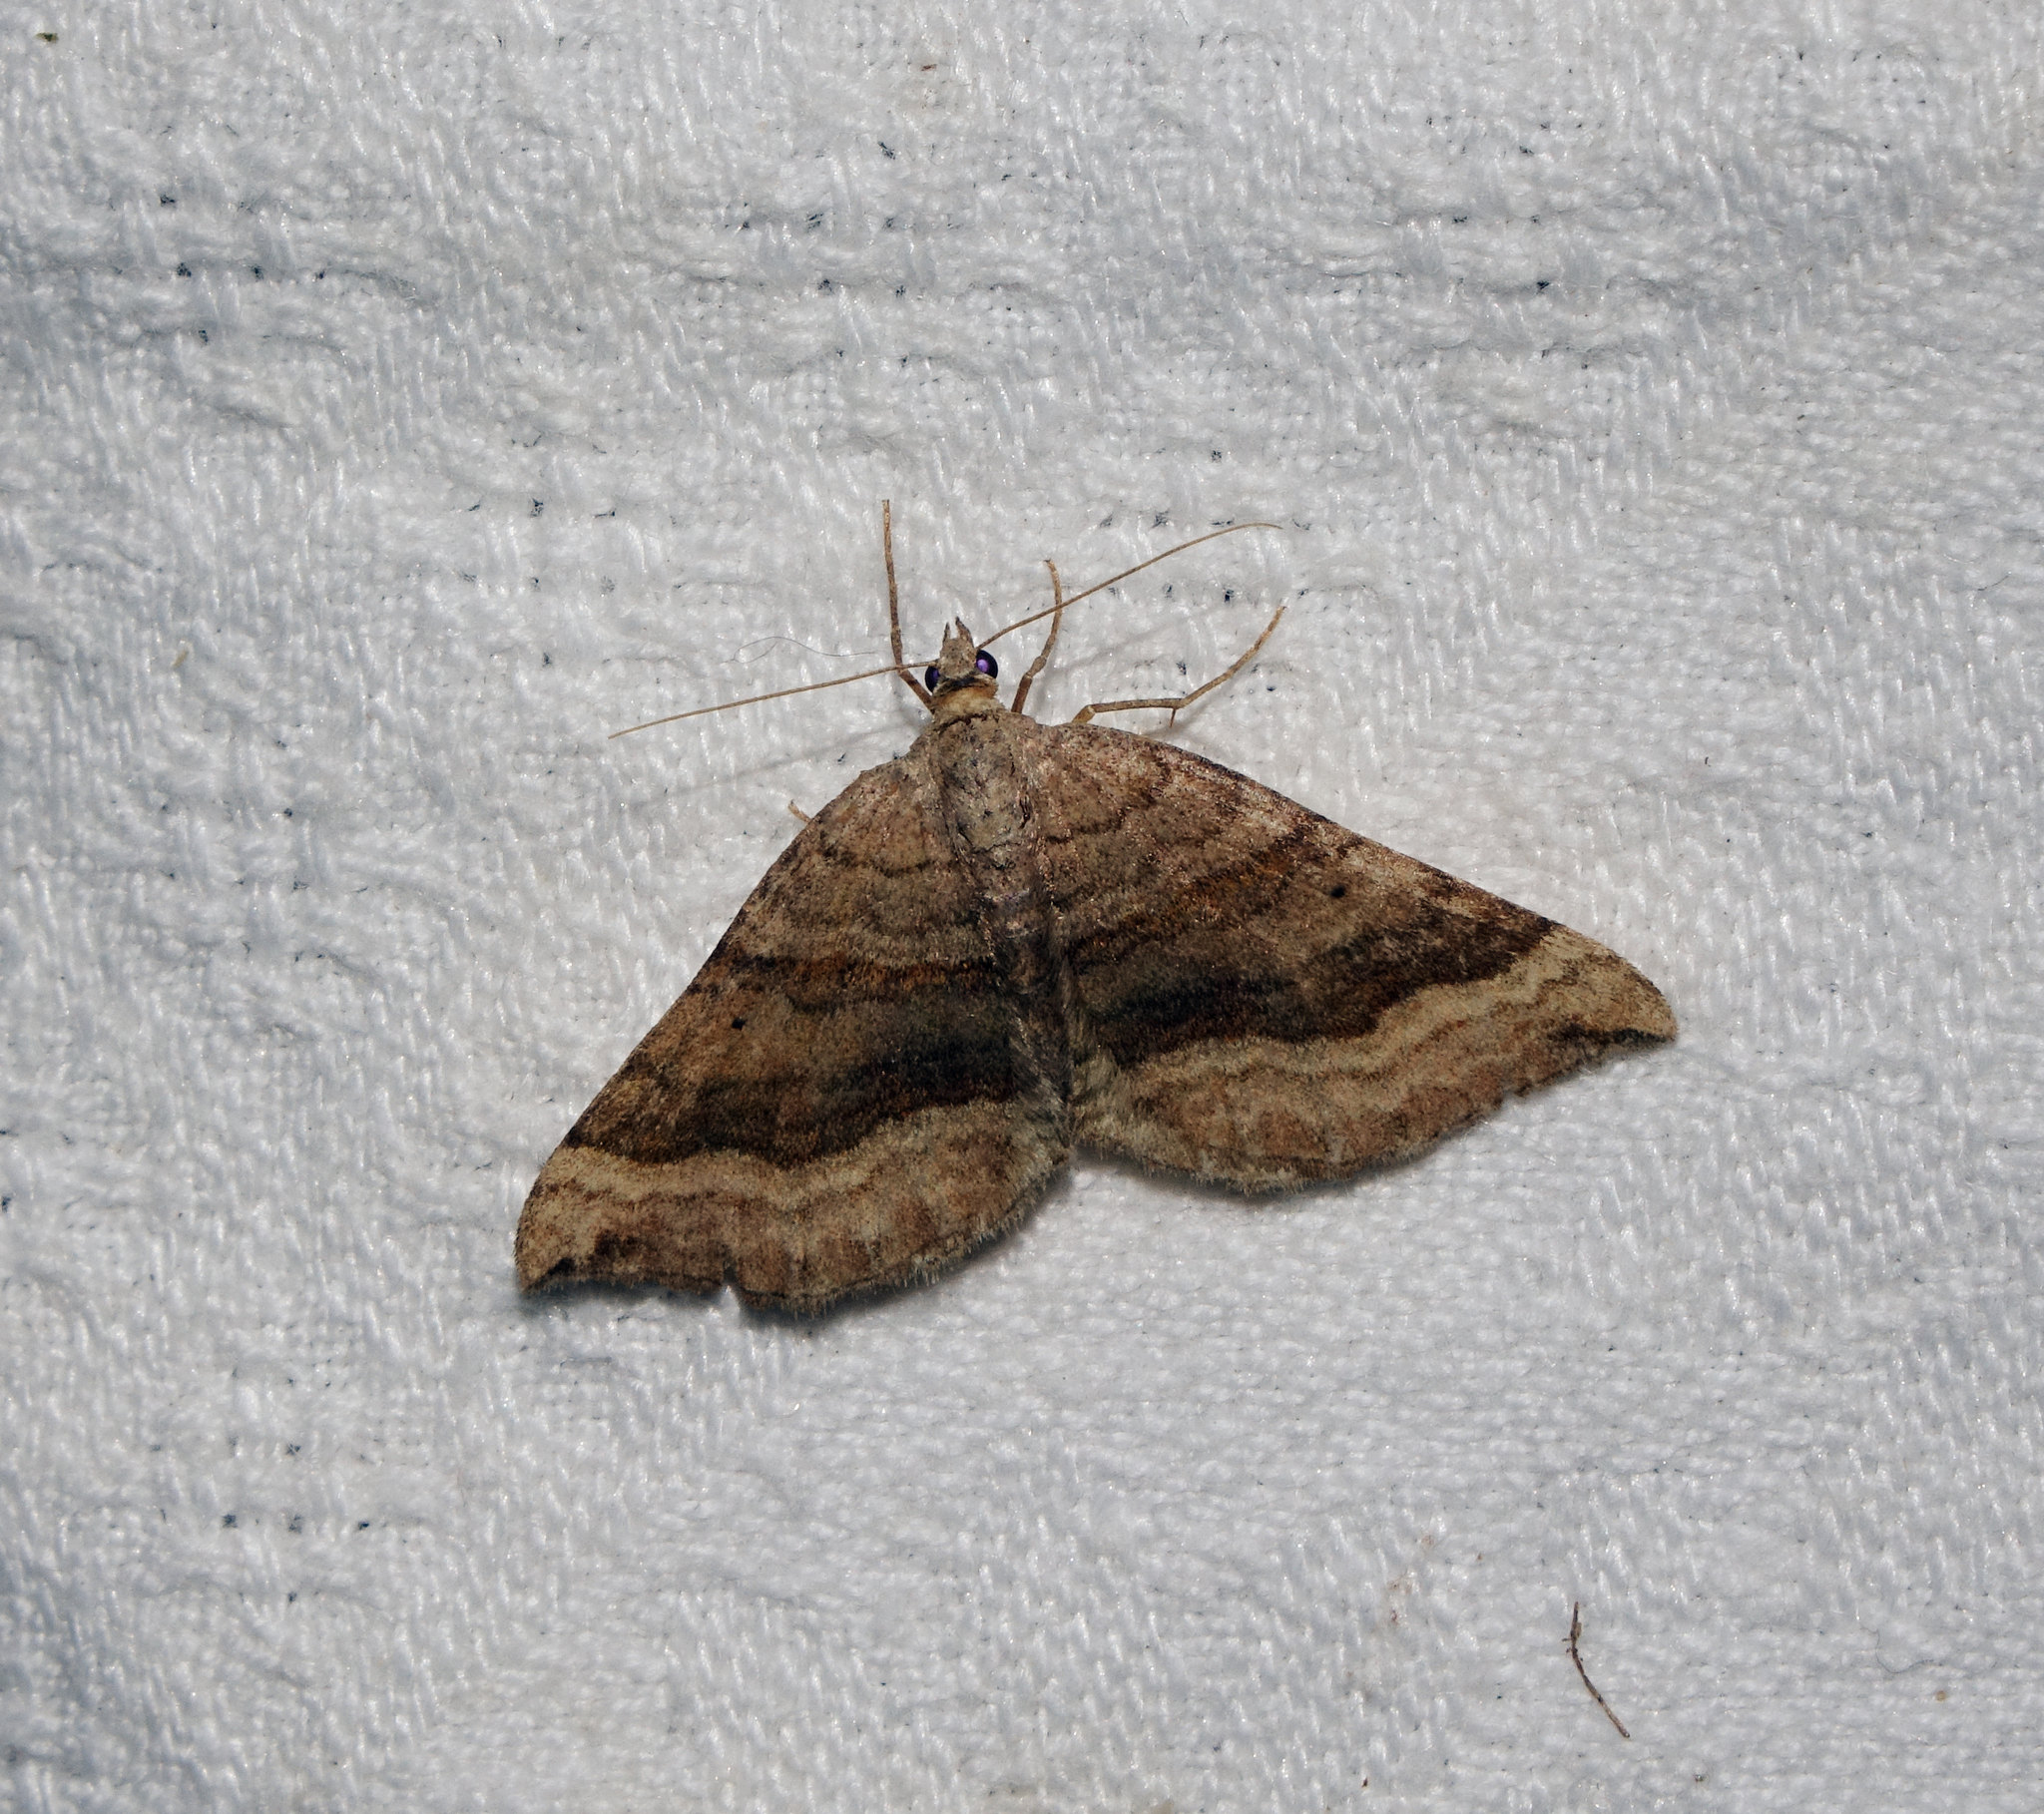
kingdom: Animalia
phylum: Arthropoda
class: Insecta
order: Lepidoptera
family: Geometridae
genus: Scotopteryx
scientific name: Scotopteryx chenopodiata
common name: Shaded broad-bar
